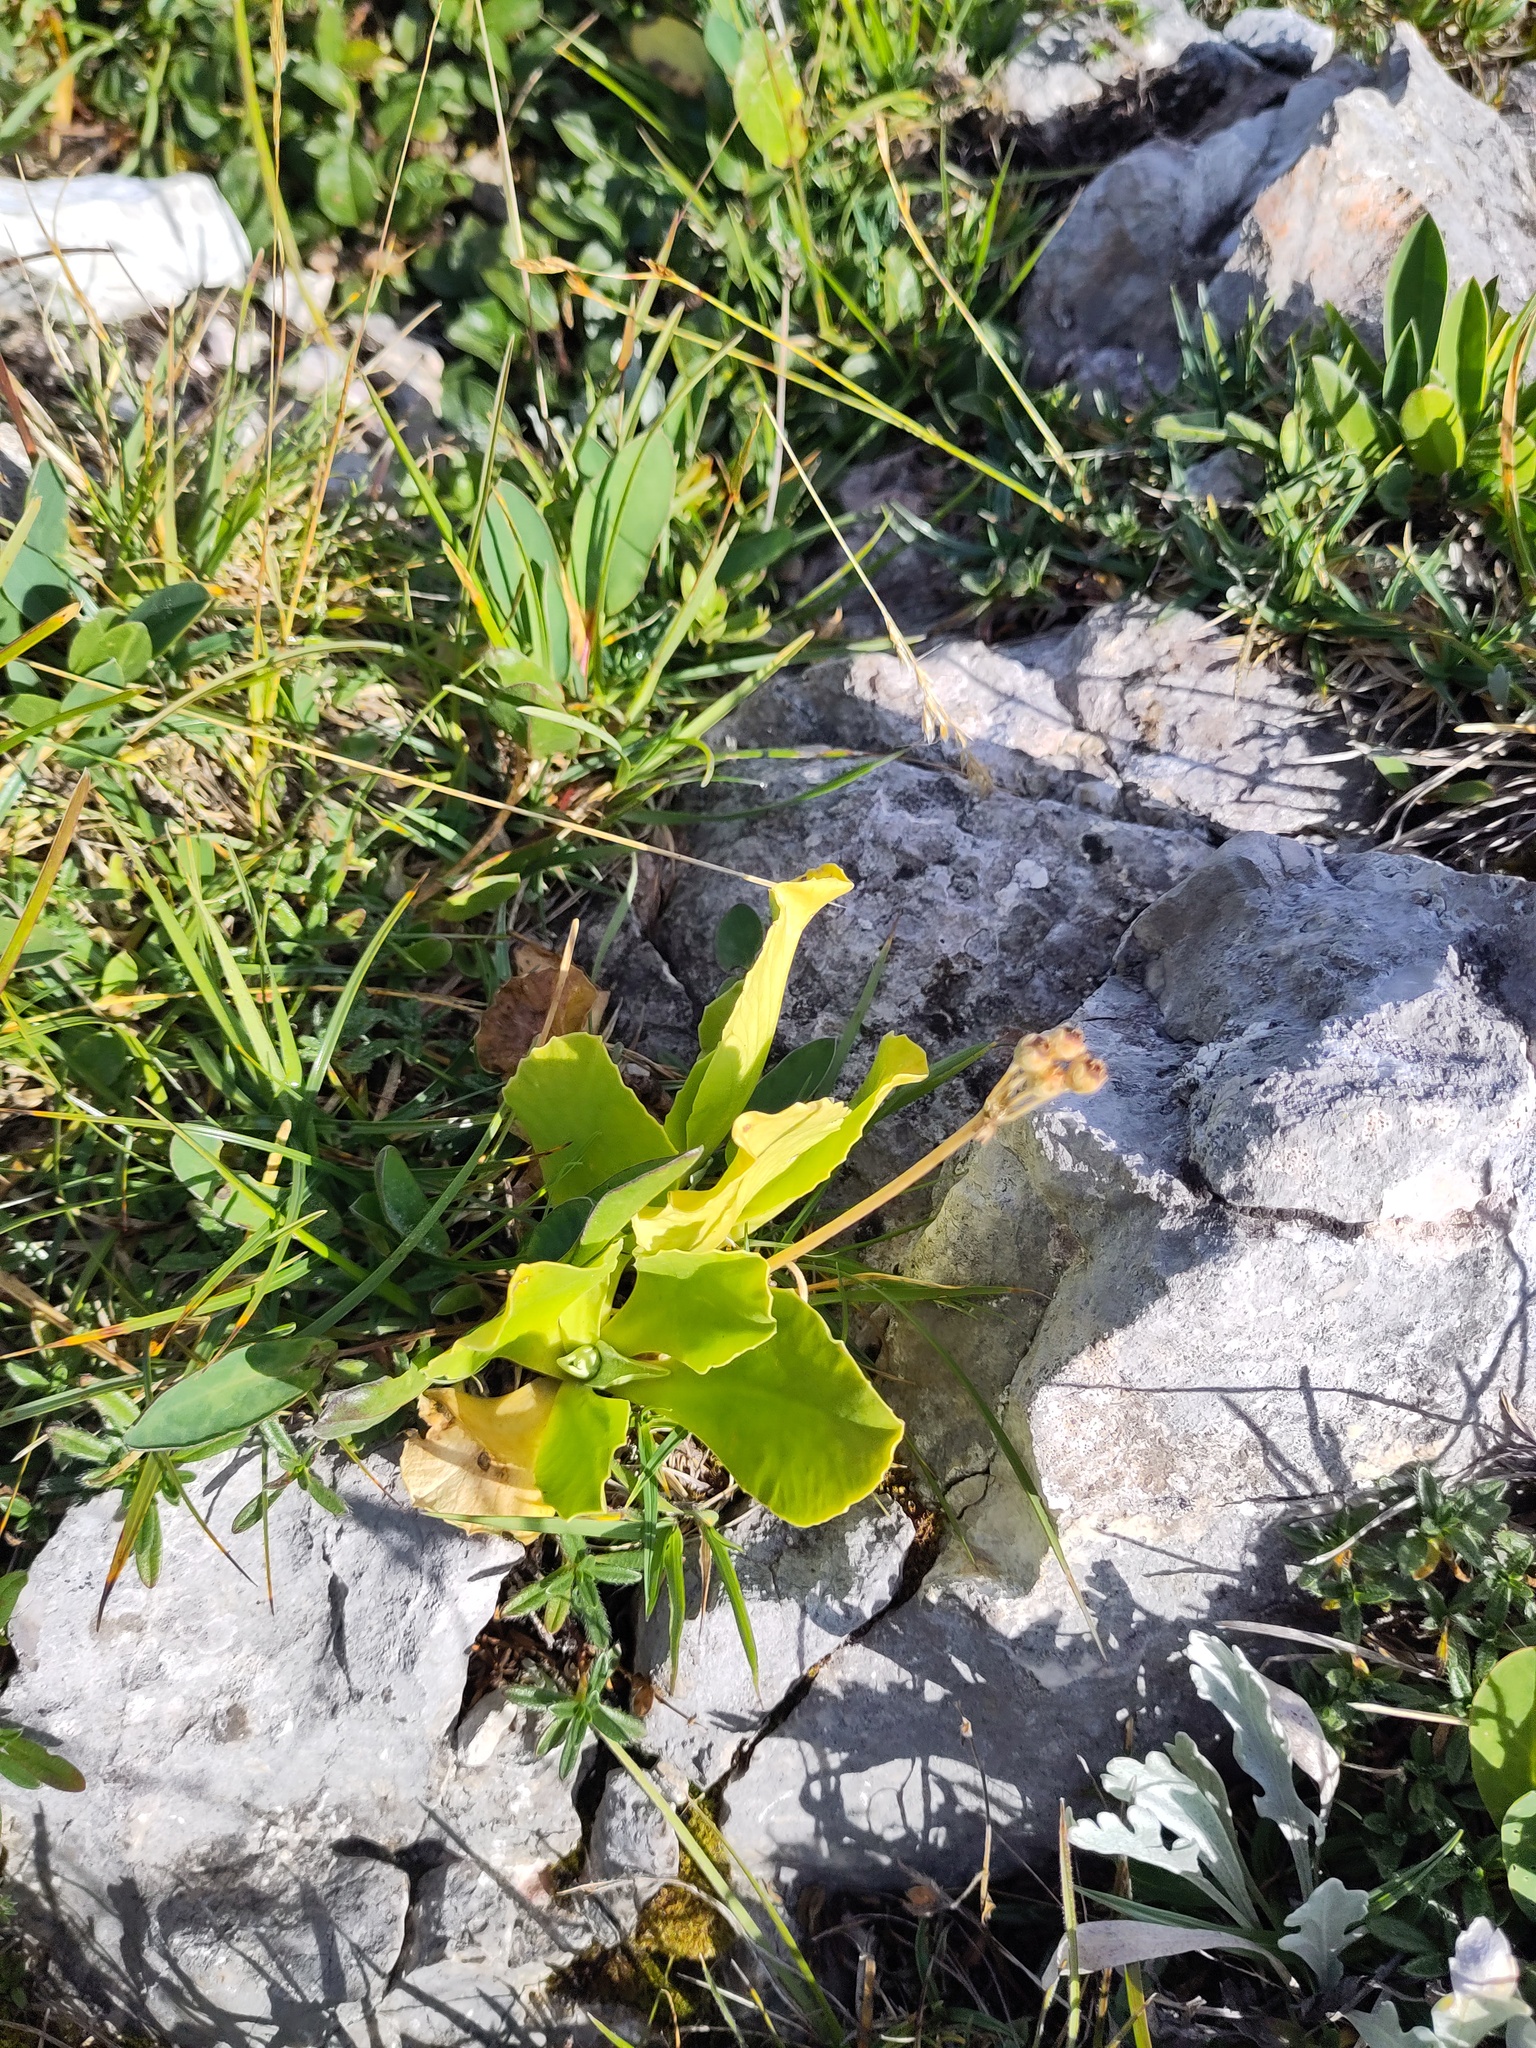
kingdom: Plantae
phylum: Tracheophyta
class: Magnoliopsida
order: Ericales
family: Primulaceae
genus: Primula
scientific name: Primula auricula
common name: Auricula
